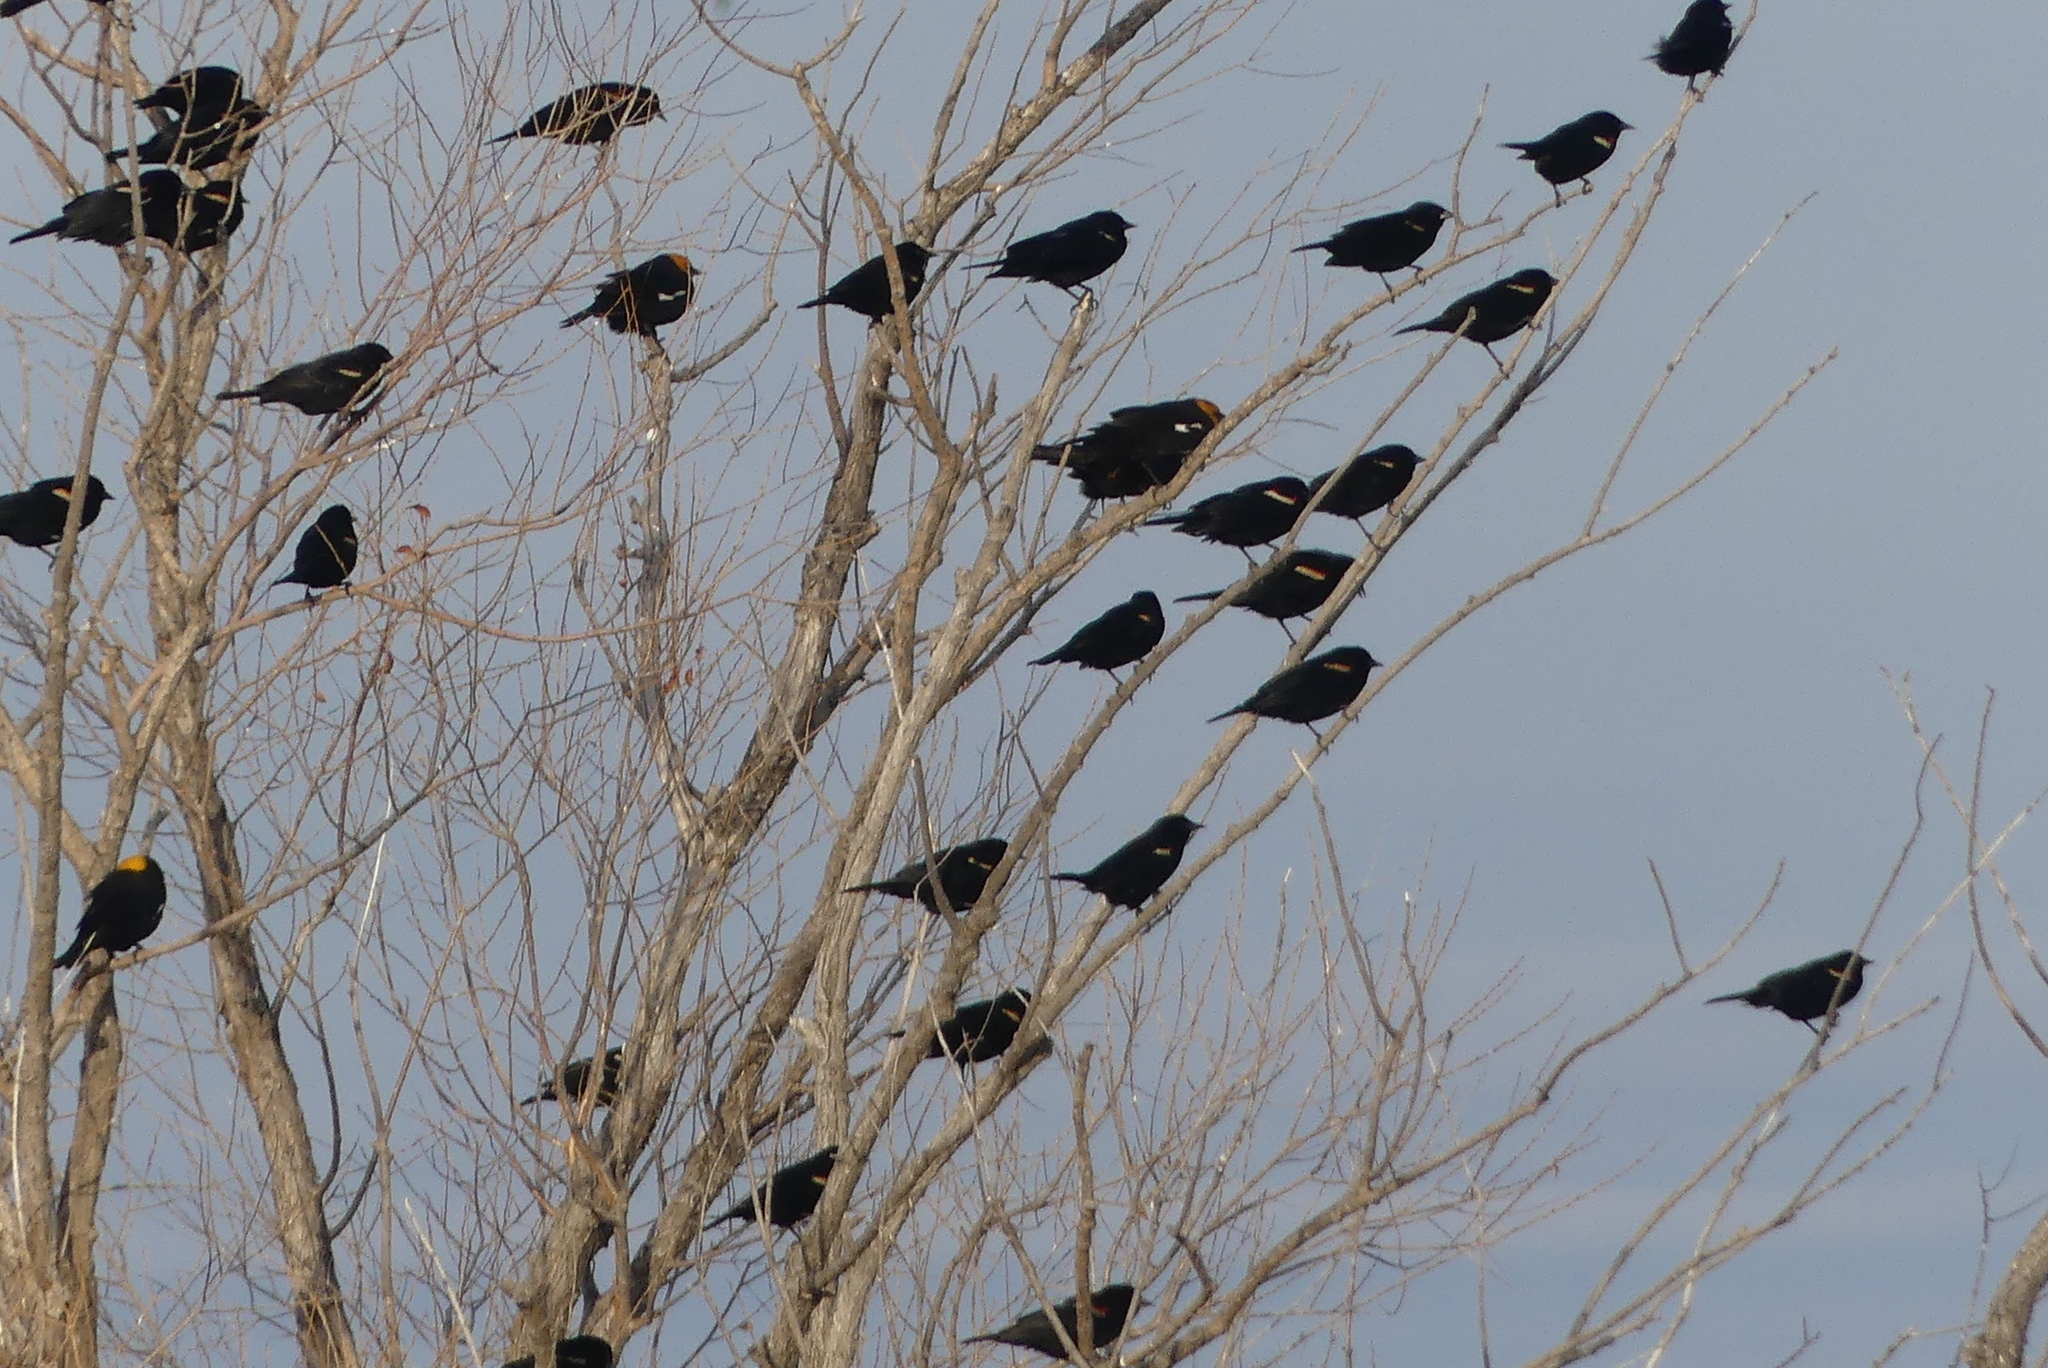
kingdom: Animalia
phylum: Chordata
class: Aves
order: Passeriformes
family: Icteridae
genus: Agelaius
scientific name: Agelaius phoeniceus
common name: Red-winged blackbird
